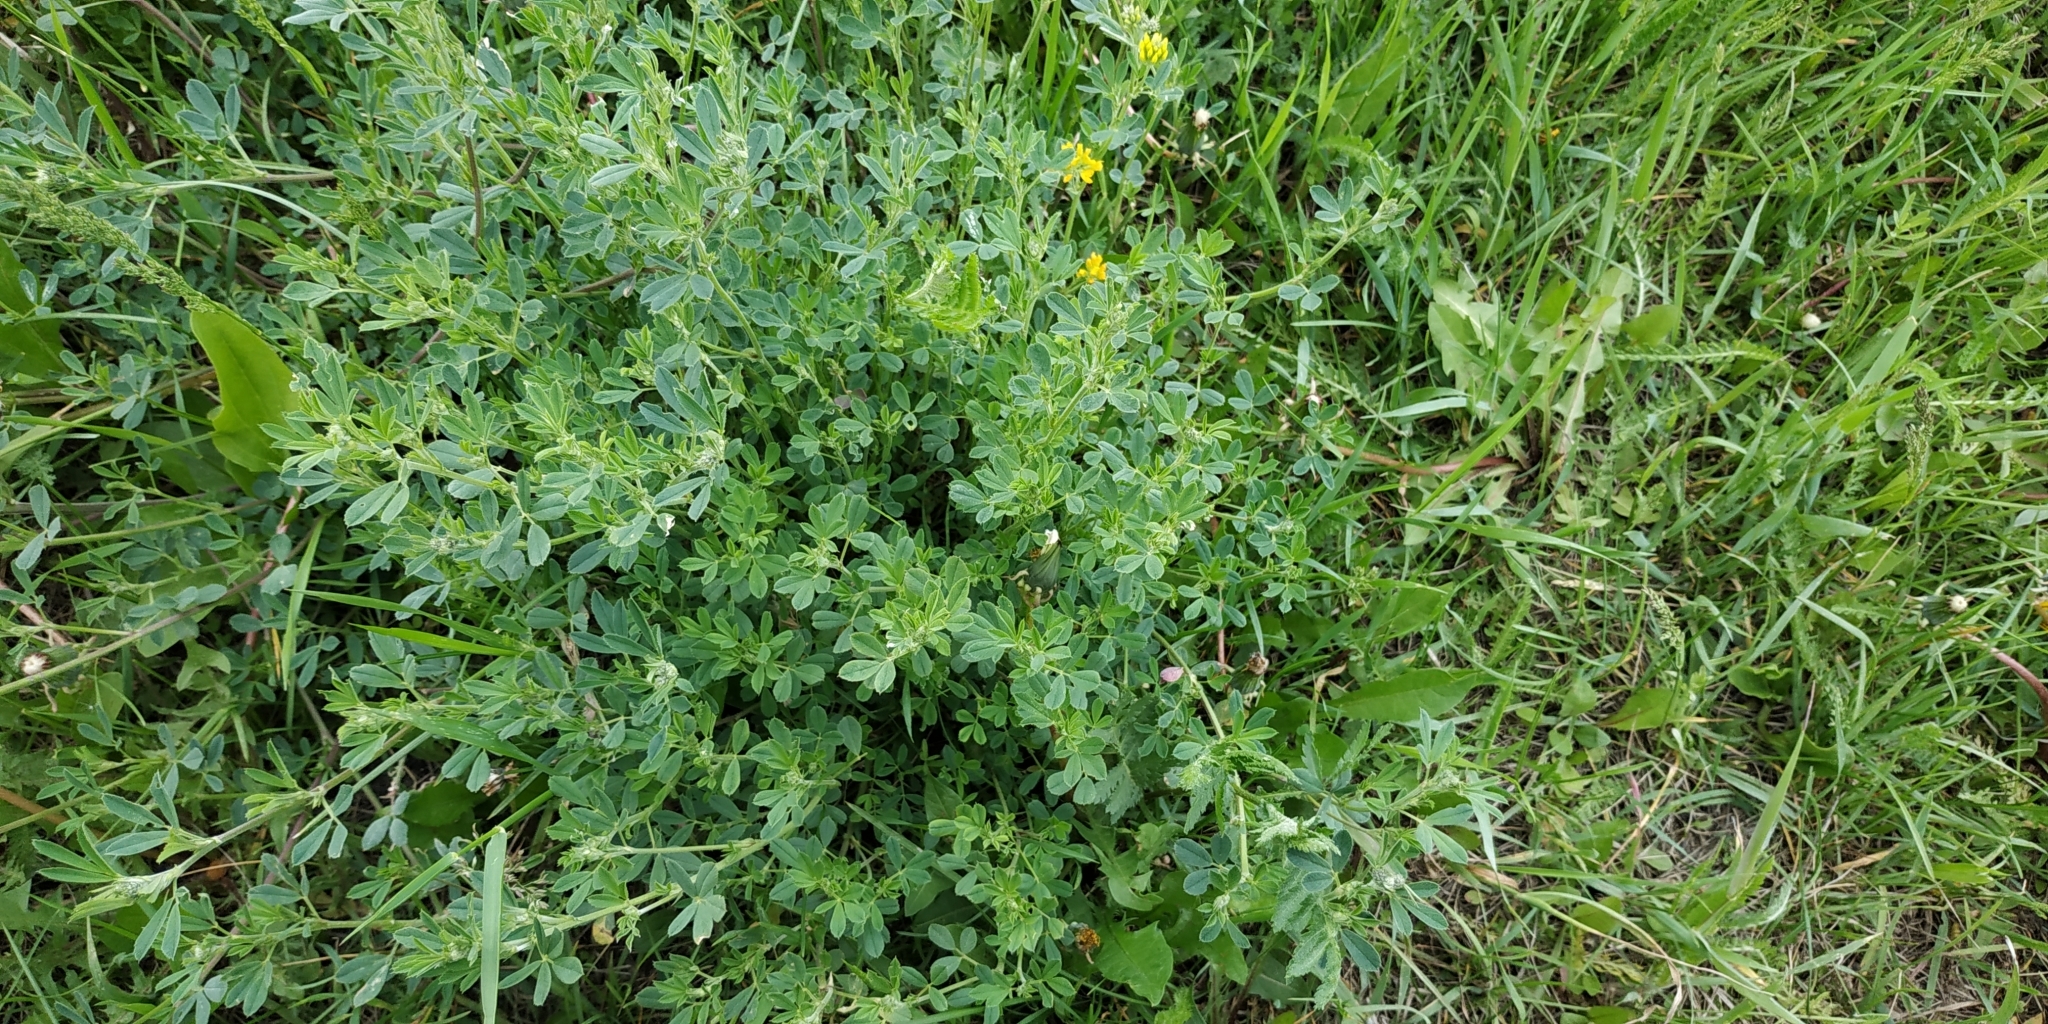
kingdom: Plantae
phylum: Tracheophyta
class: Magnoliopsida
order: Fabales
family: Fabaceae
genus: Medicago
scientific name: Medicago falcata
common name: Sickle medick
